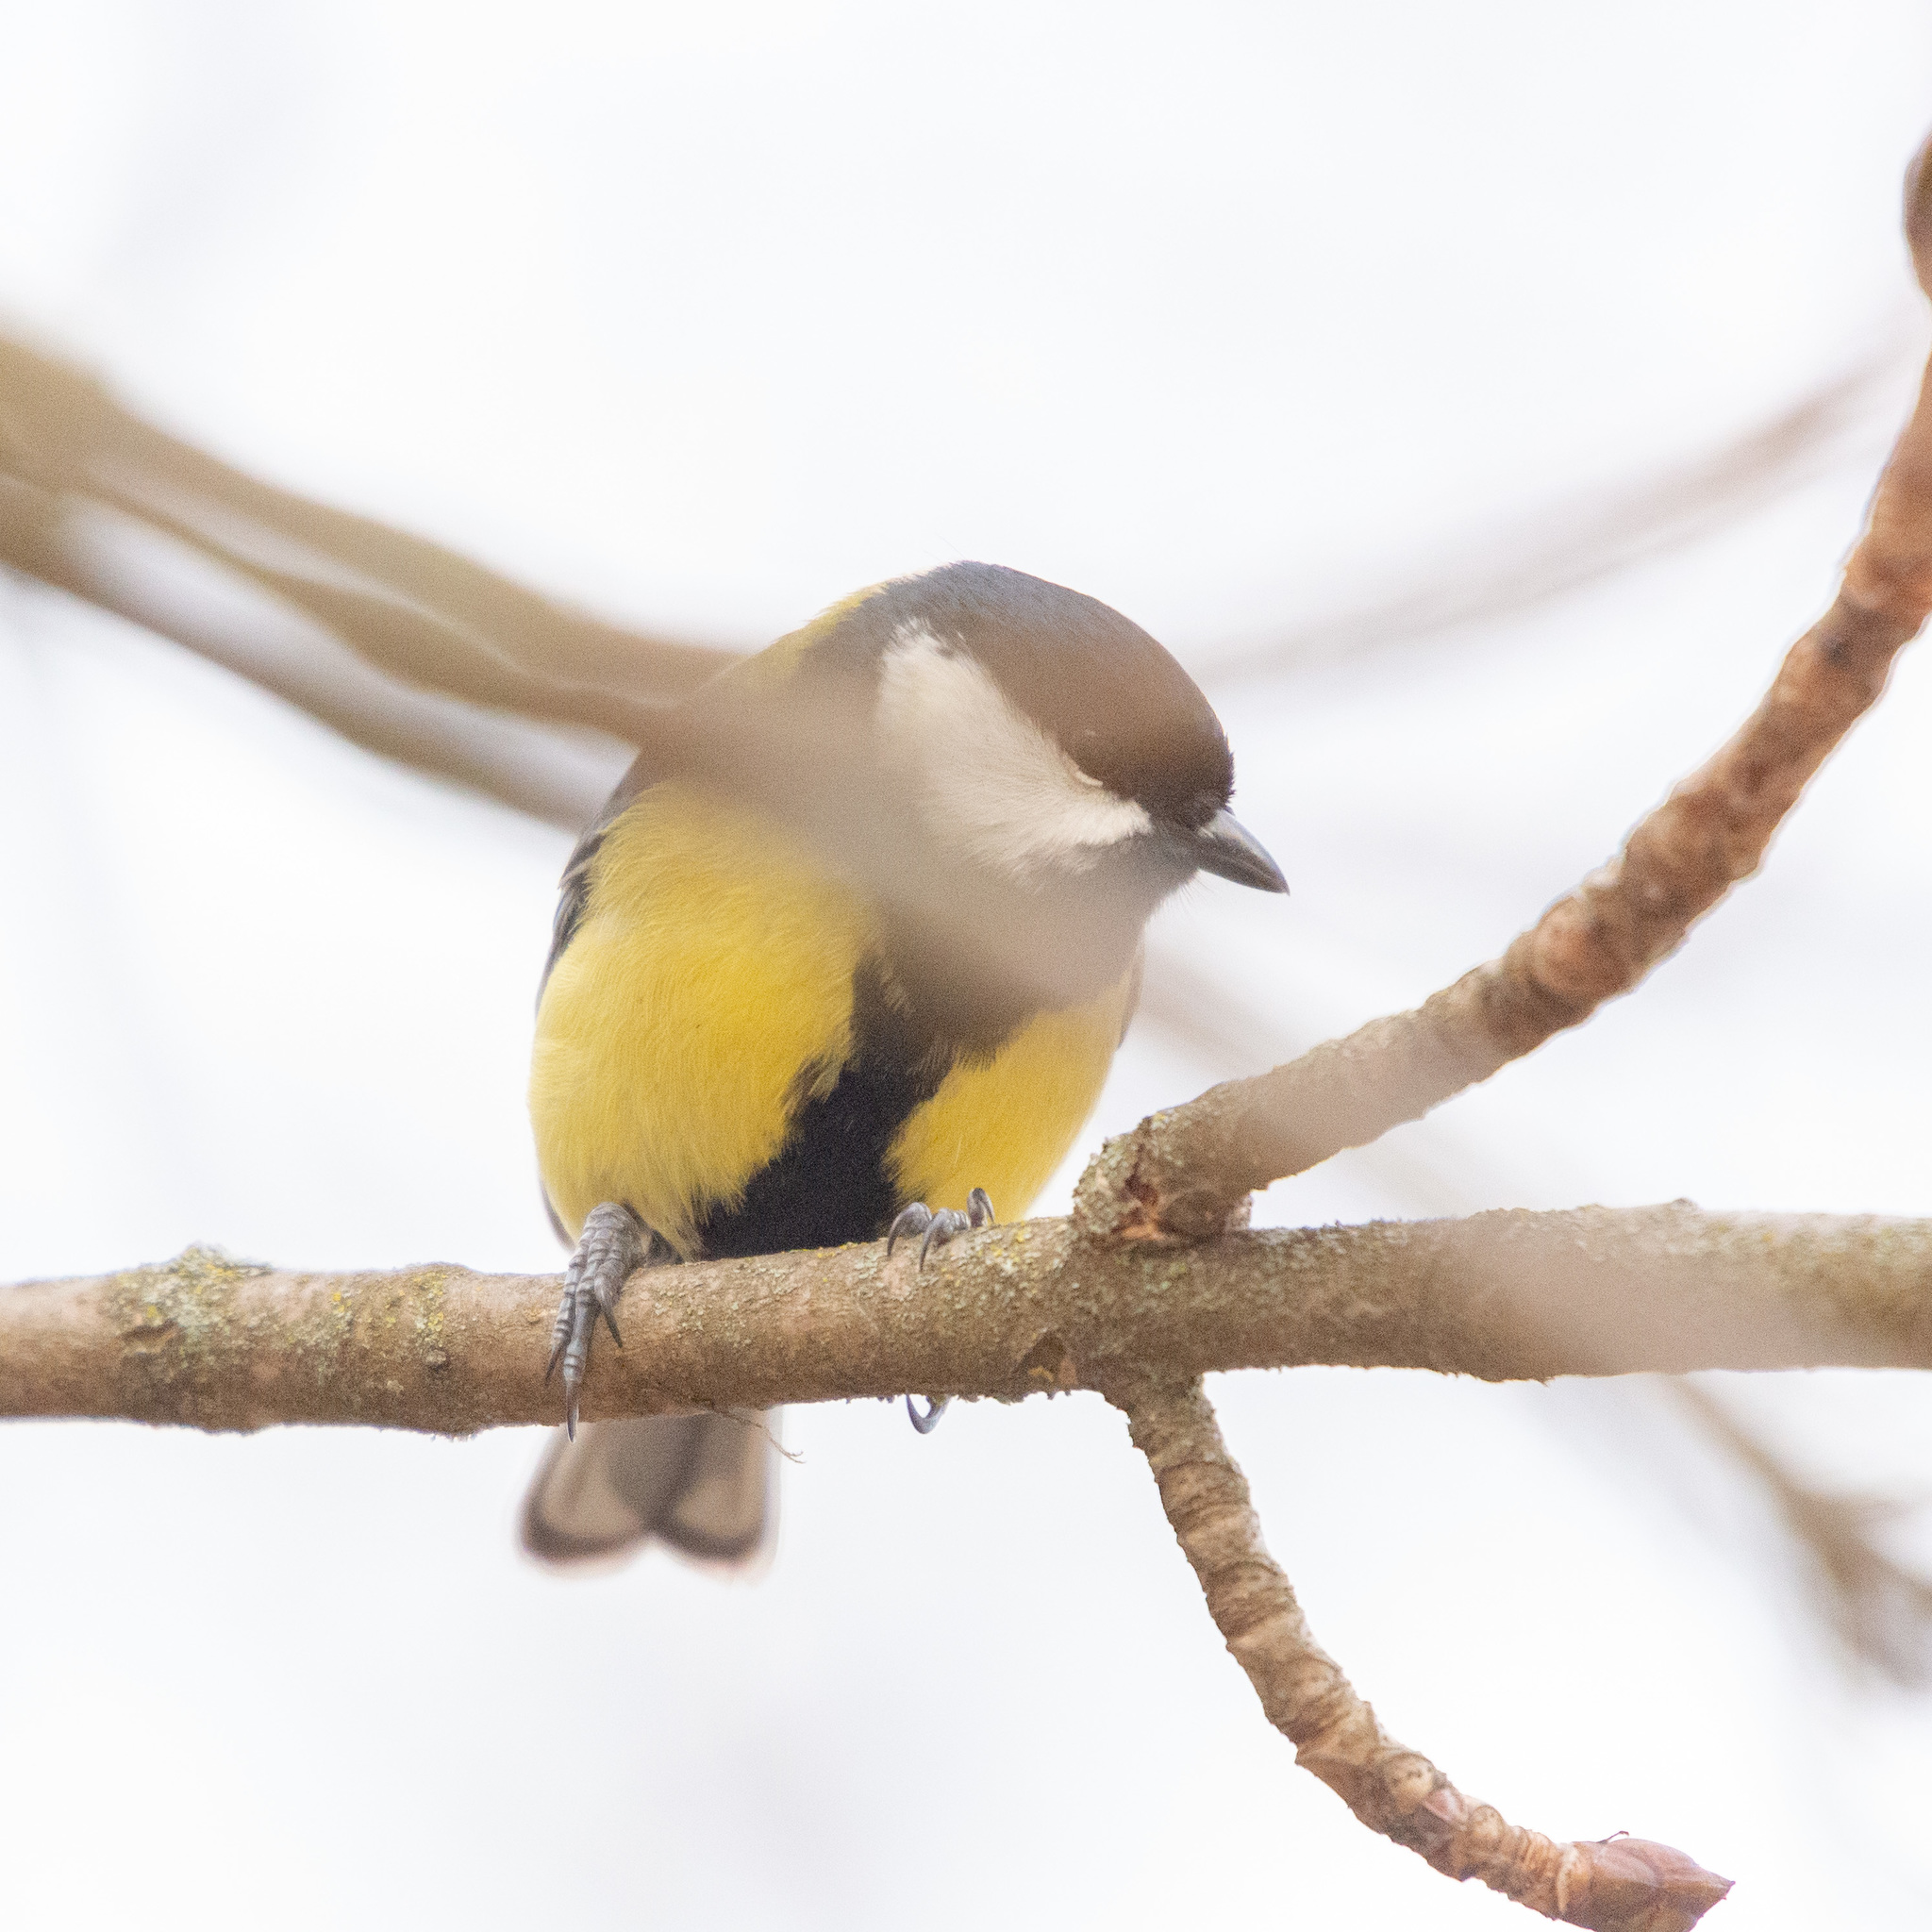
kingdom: Animalia
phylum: Chordata
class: Aves
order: Passeriformes
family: Paridae
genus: Parus
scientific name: Parus major
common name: Great tit
